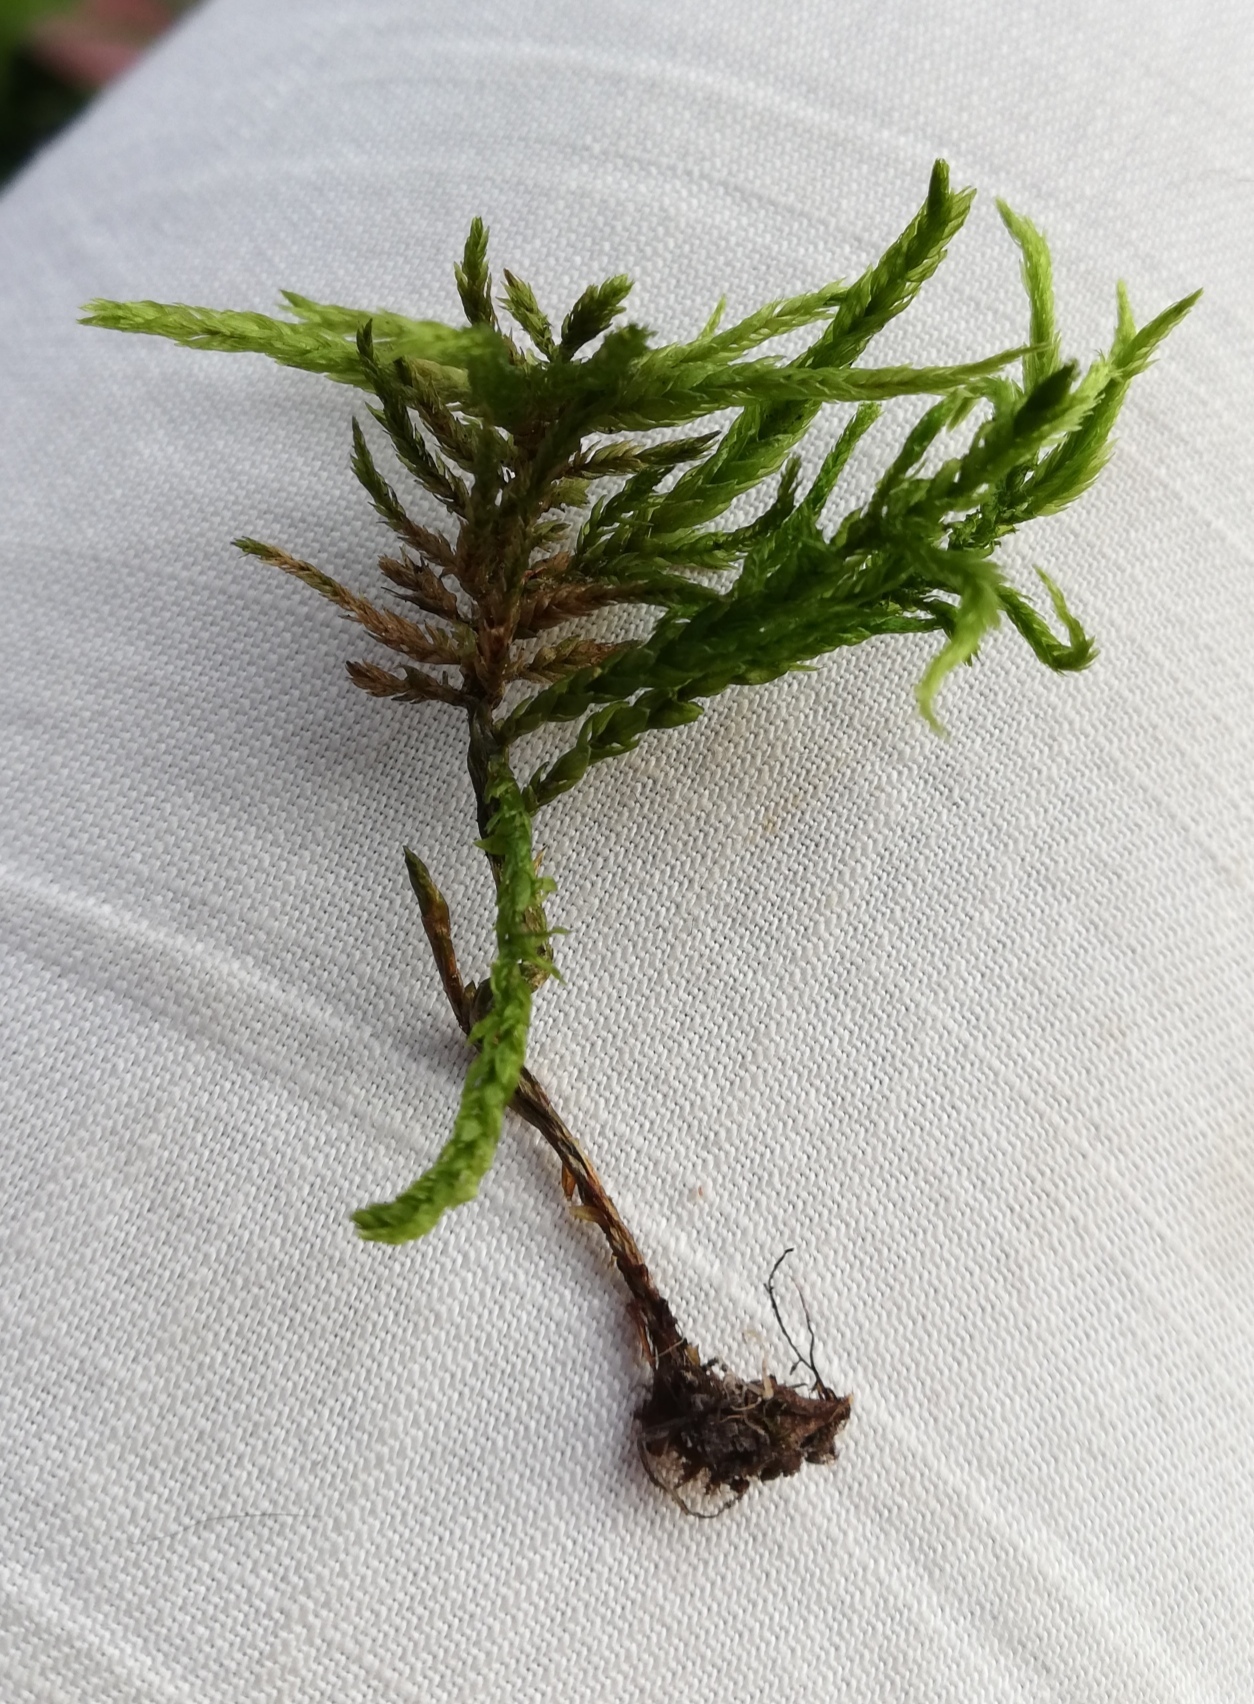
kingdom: Plantae
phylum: Bryophyta
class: Bryopsida
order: Hypnales
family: Climaciaceae
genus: Climacium
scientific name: Climacium dendroides
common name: Northern tree moss
